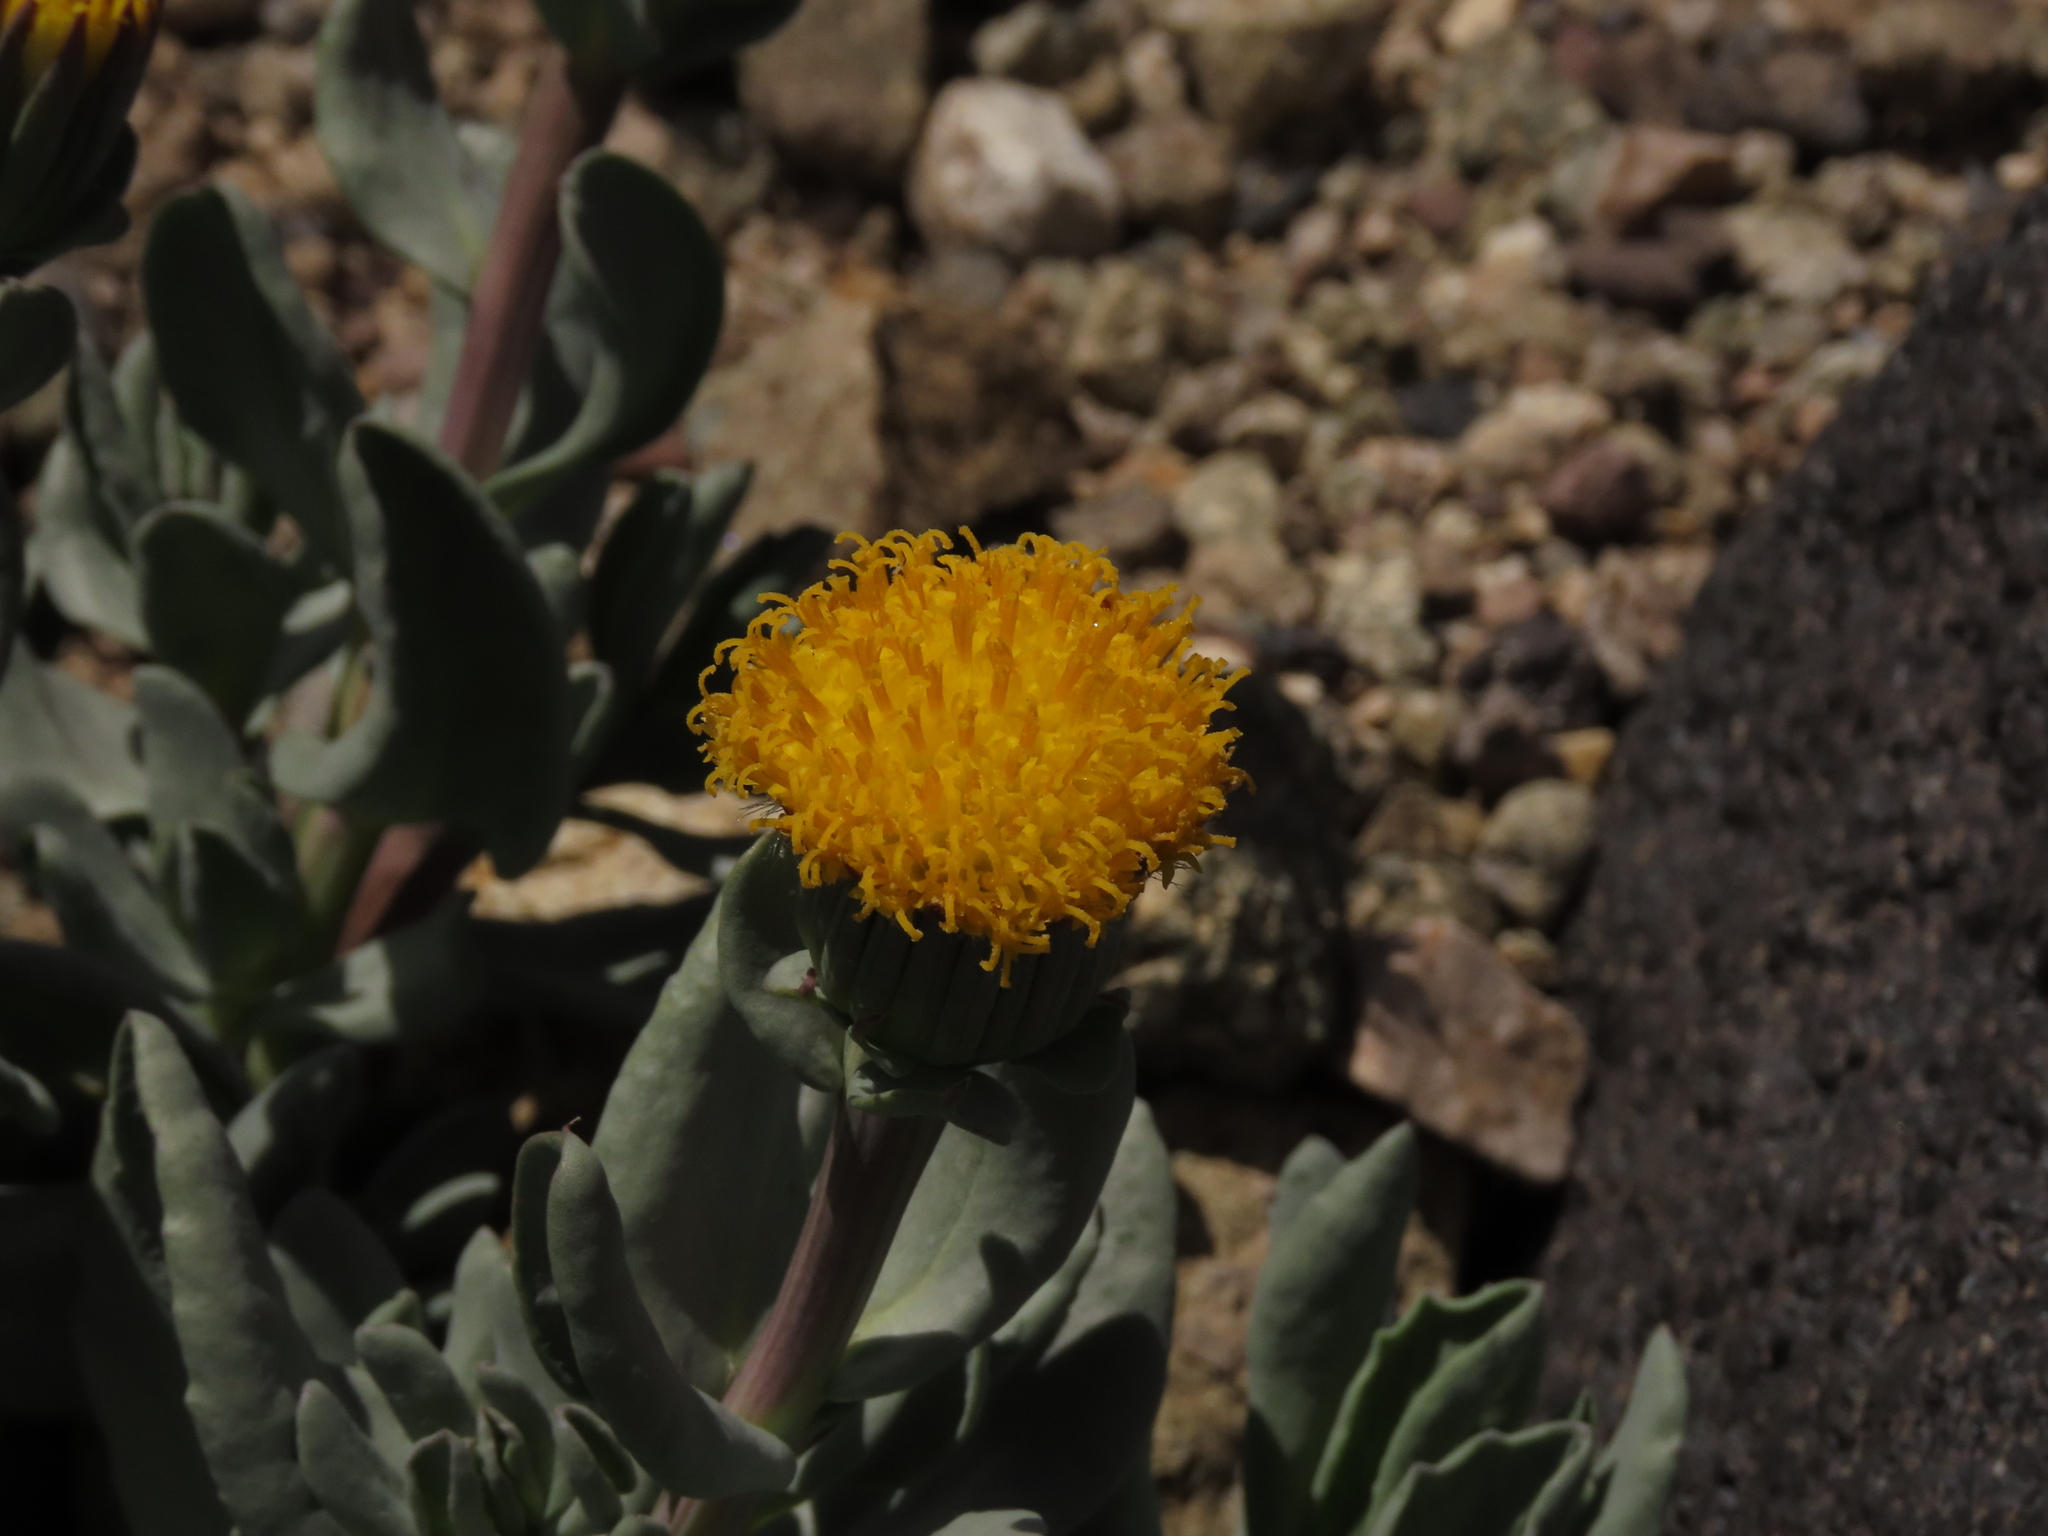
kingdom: Plantae
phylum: Tracheophyta
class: Magnoliopsida
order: Asterales
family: Asteraceae
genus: Senecio
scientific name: Senecio lithostaurus
